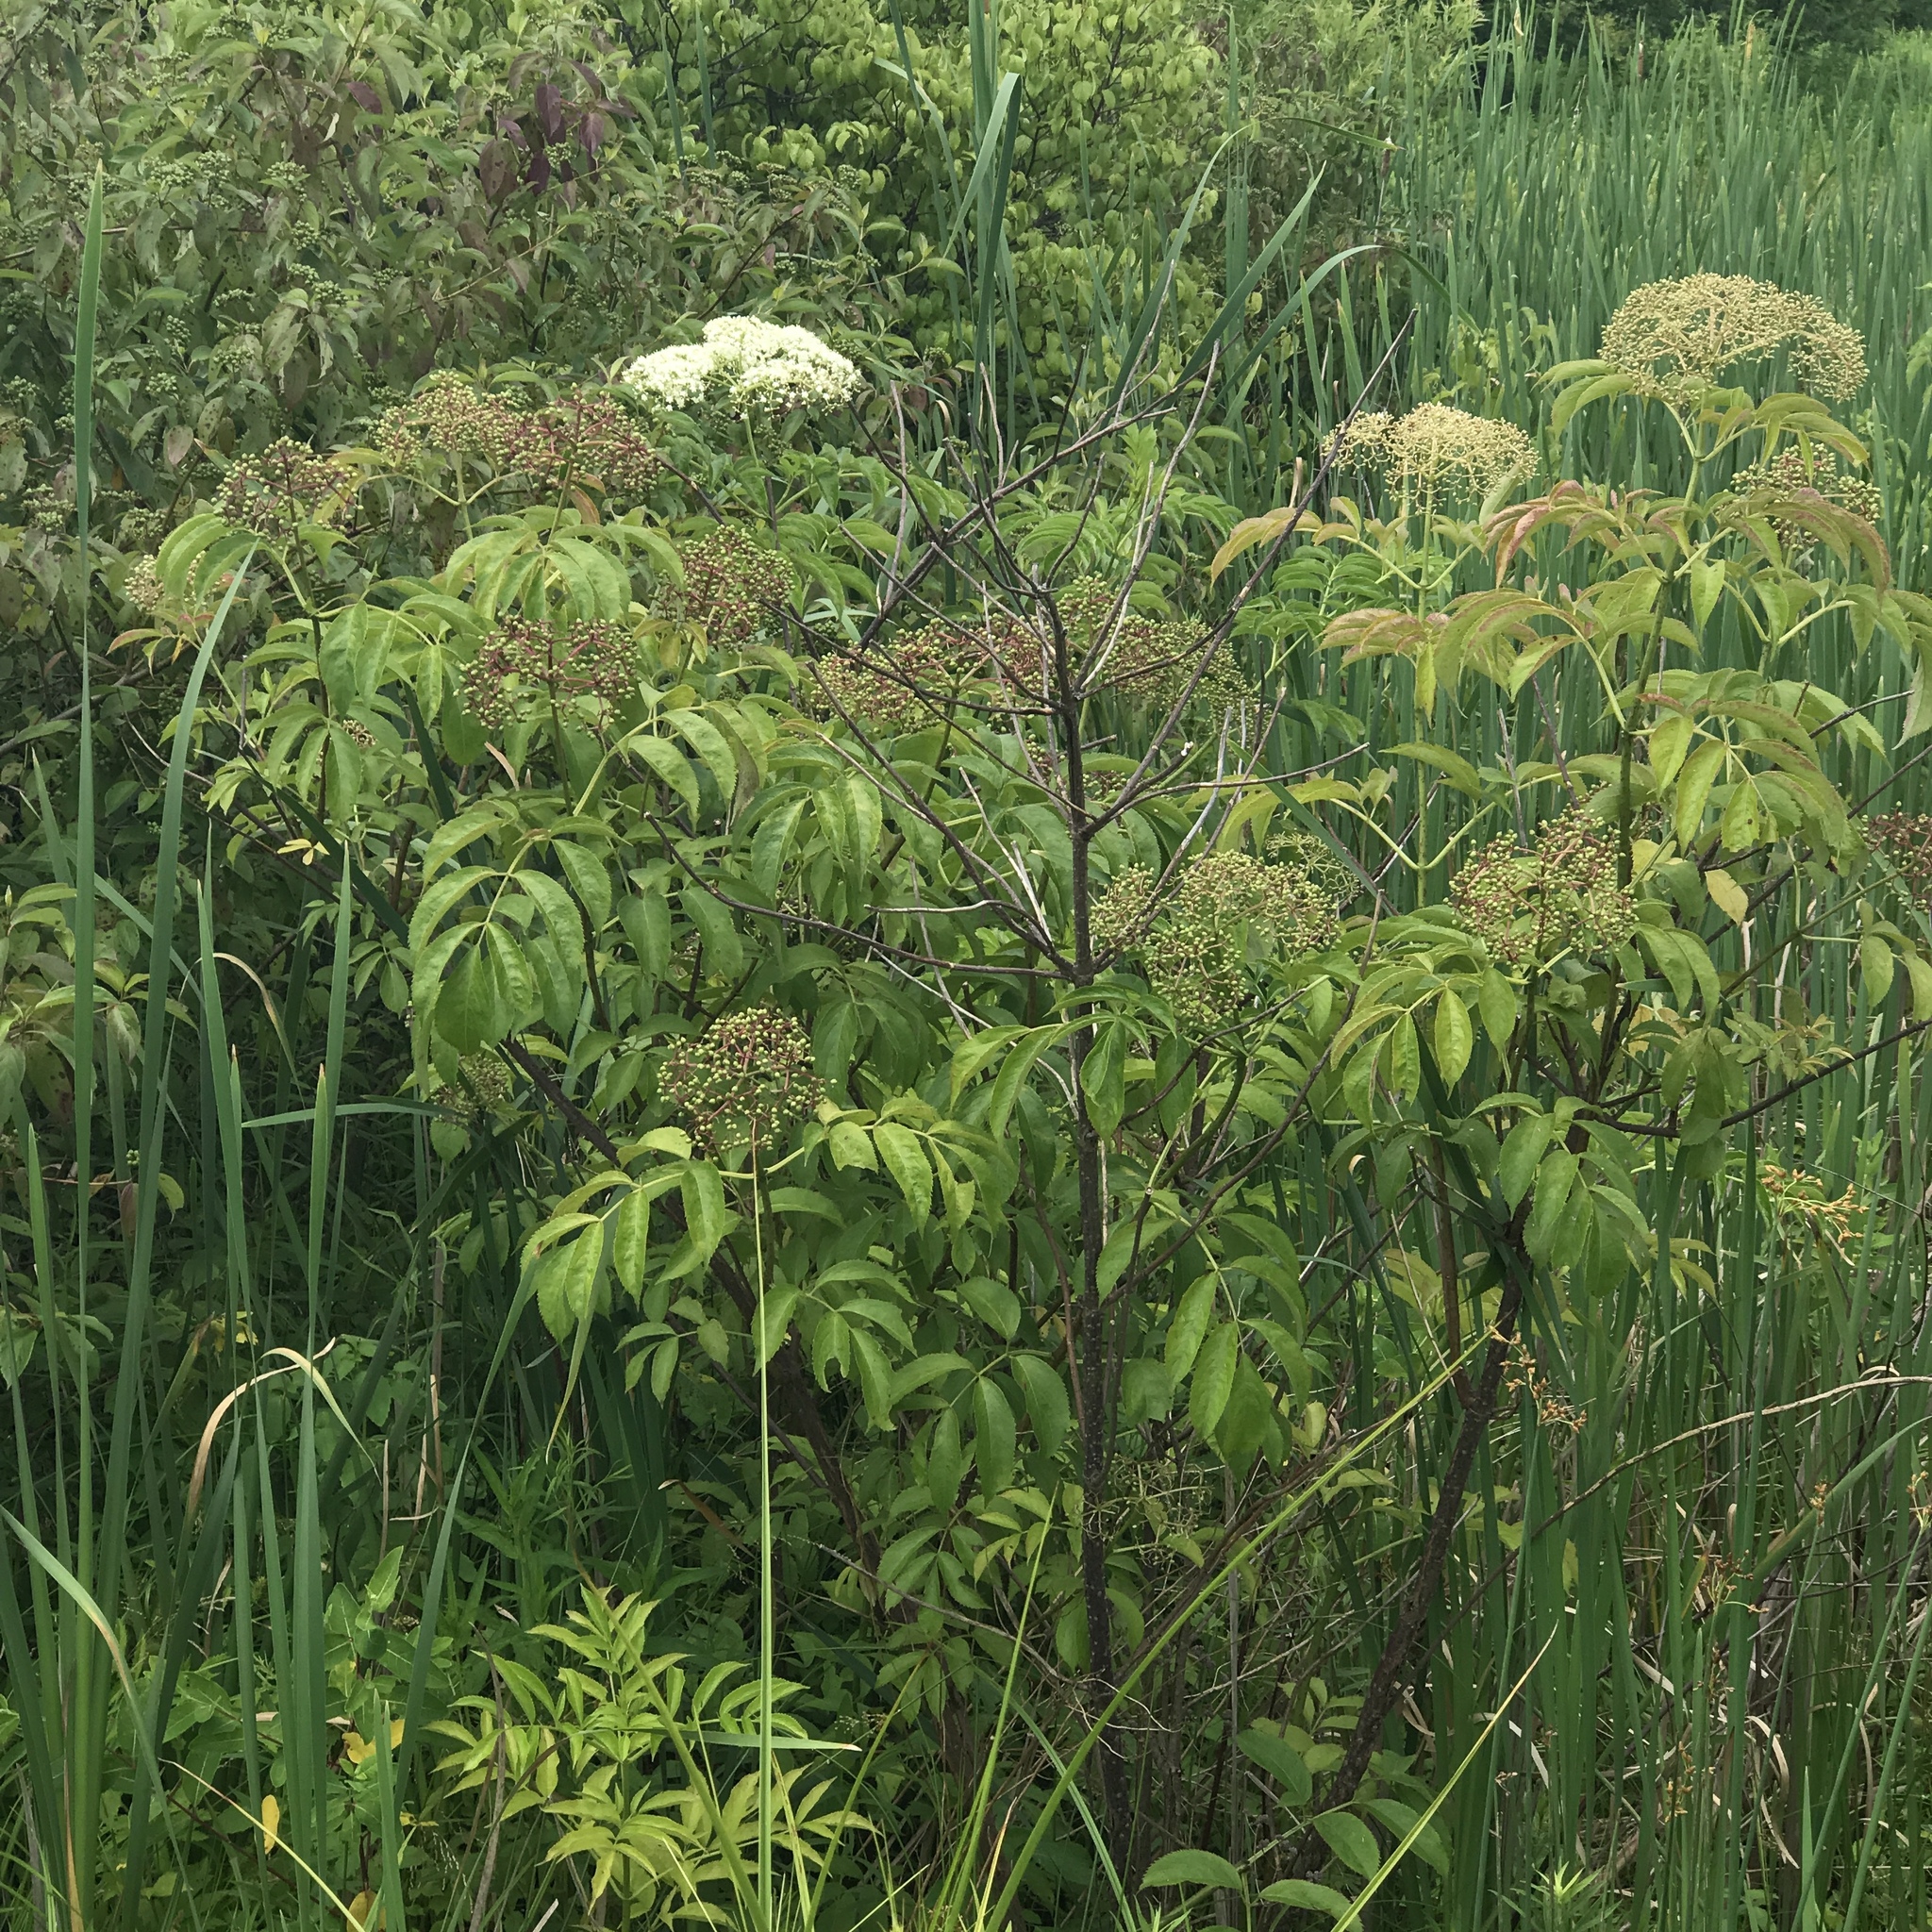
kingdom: Plantae
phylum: Tracheophyta
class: Magnoliopsida
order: Dipsacales
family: Viburnaceae
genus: Sambucus
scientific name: Sambucus canadensis
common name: American elder
